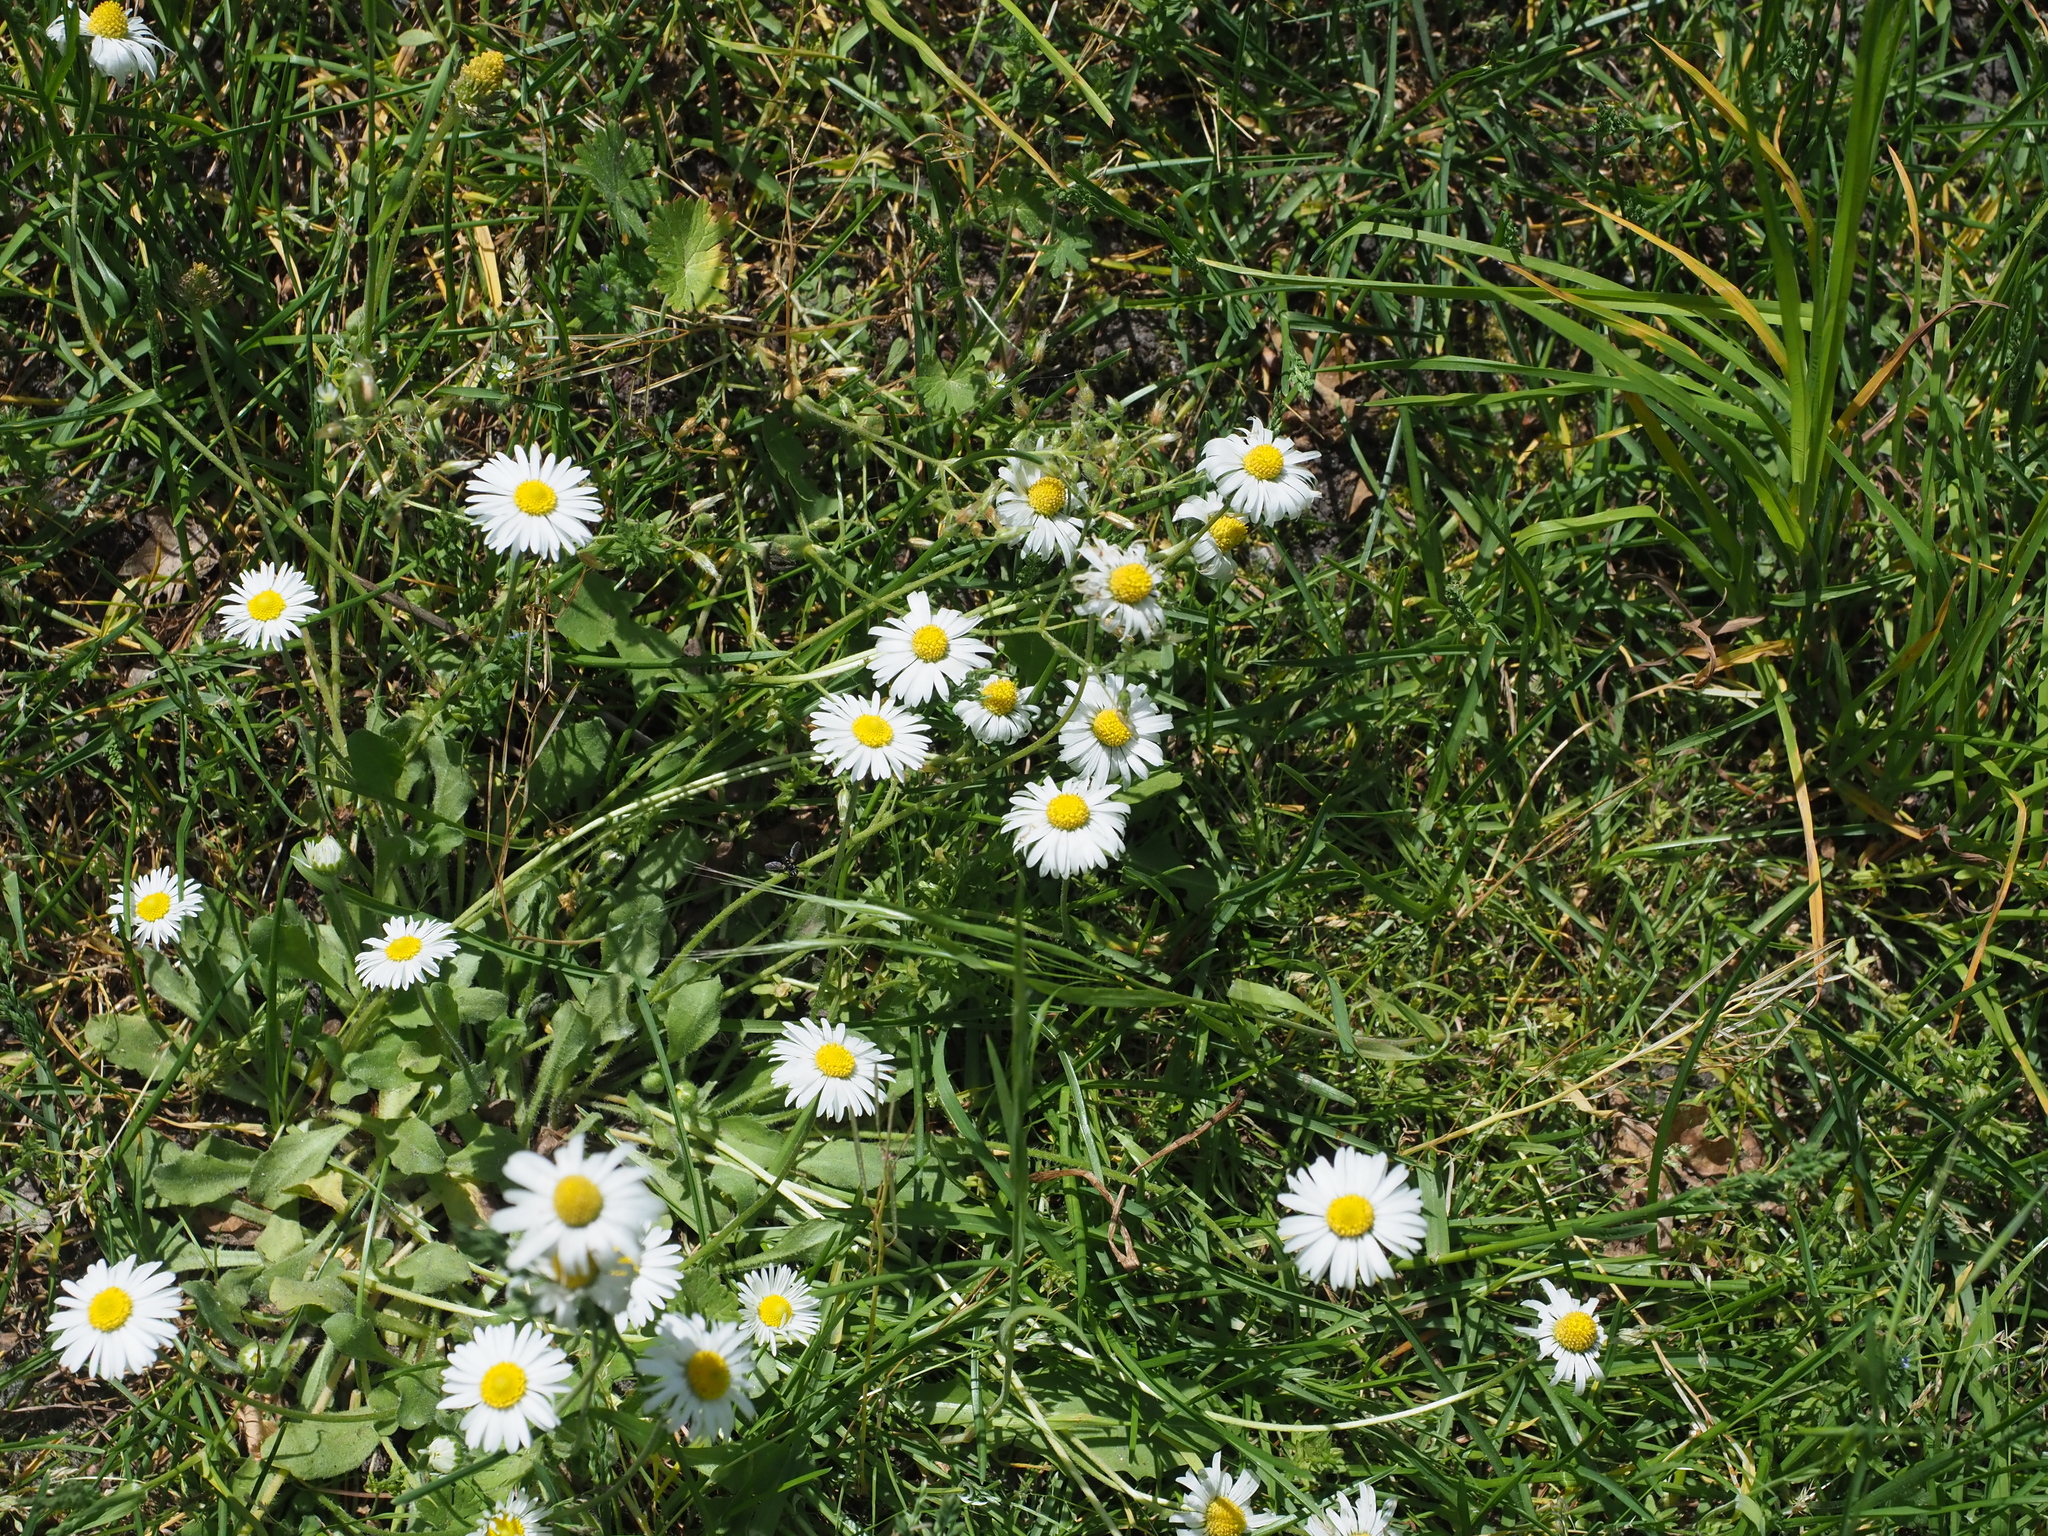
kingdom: Plantae
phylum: Tracheophyta
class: Magnoliopsida
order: Asterales
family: Asteraceae
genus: Leucanthemum
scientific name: Leucanthemum vulgare
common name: Oxeye daisy
